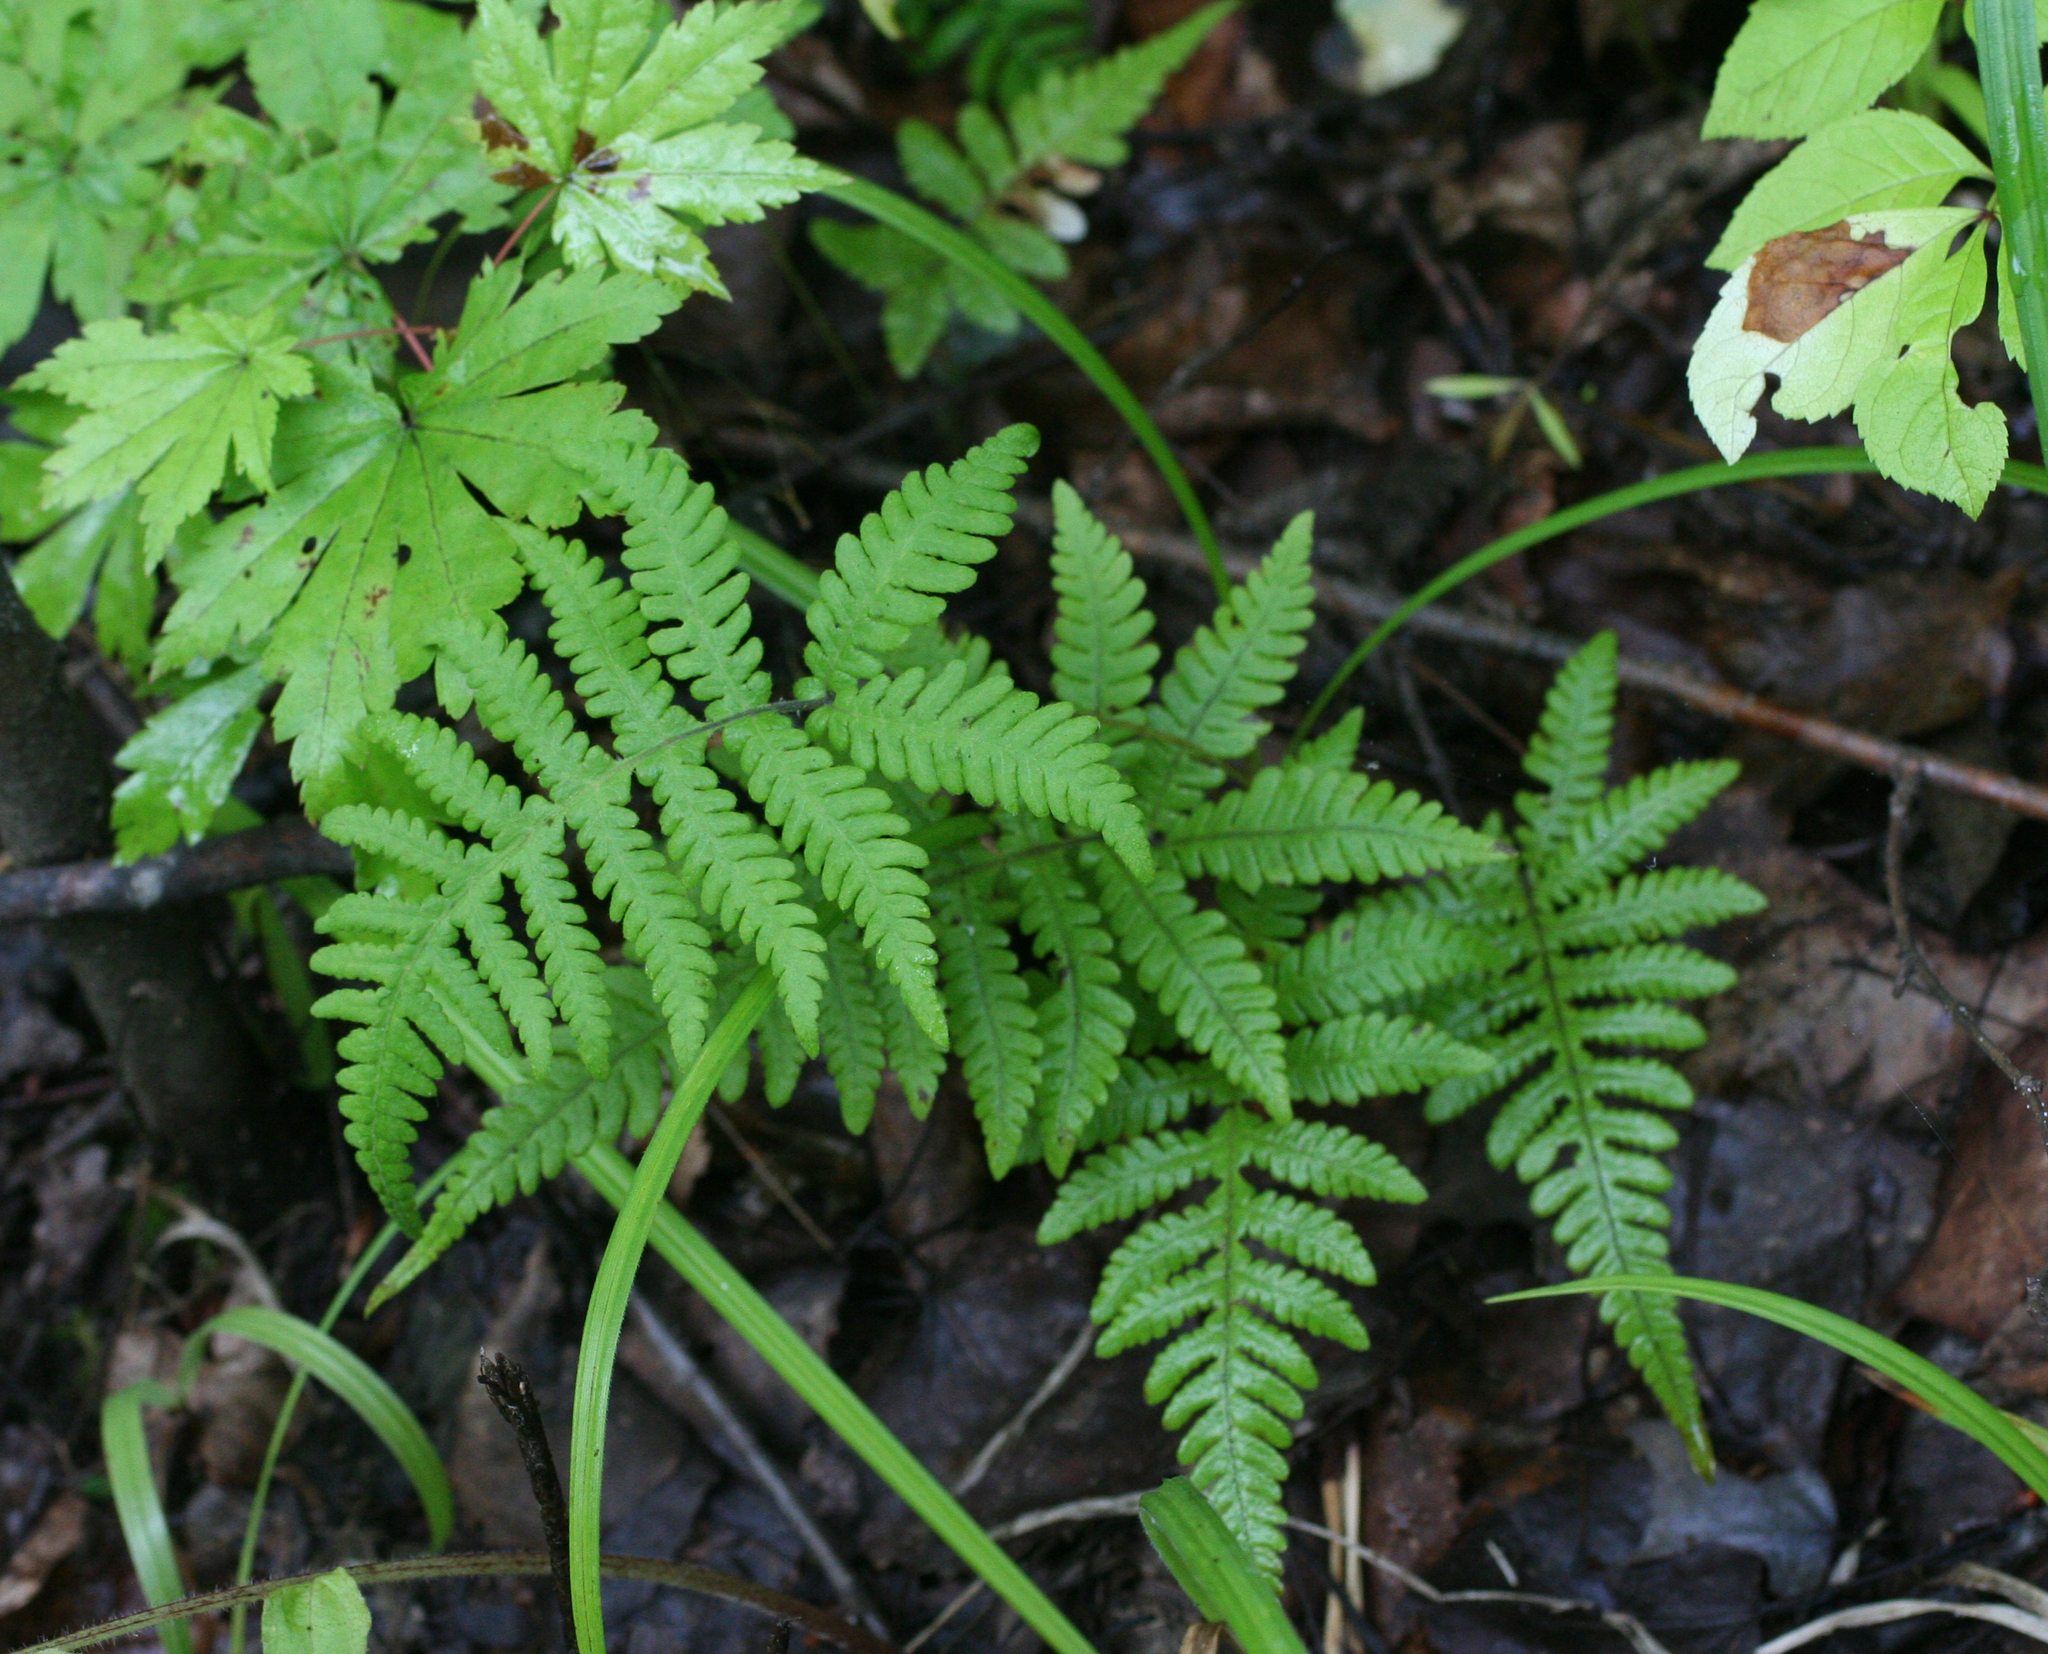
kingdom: Plantae
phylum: Tracheophyta
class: Polypodiopsida
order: Polypodiales
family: Thelypteridaceae
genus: Phegopteris
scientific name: Phegopteris connectilis
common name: Beech fern
